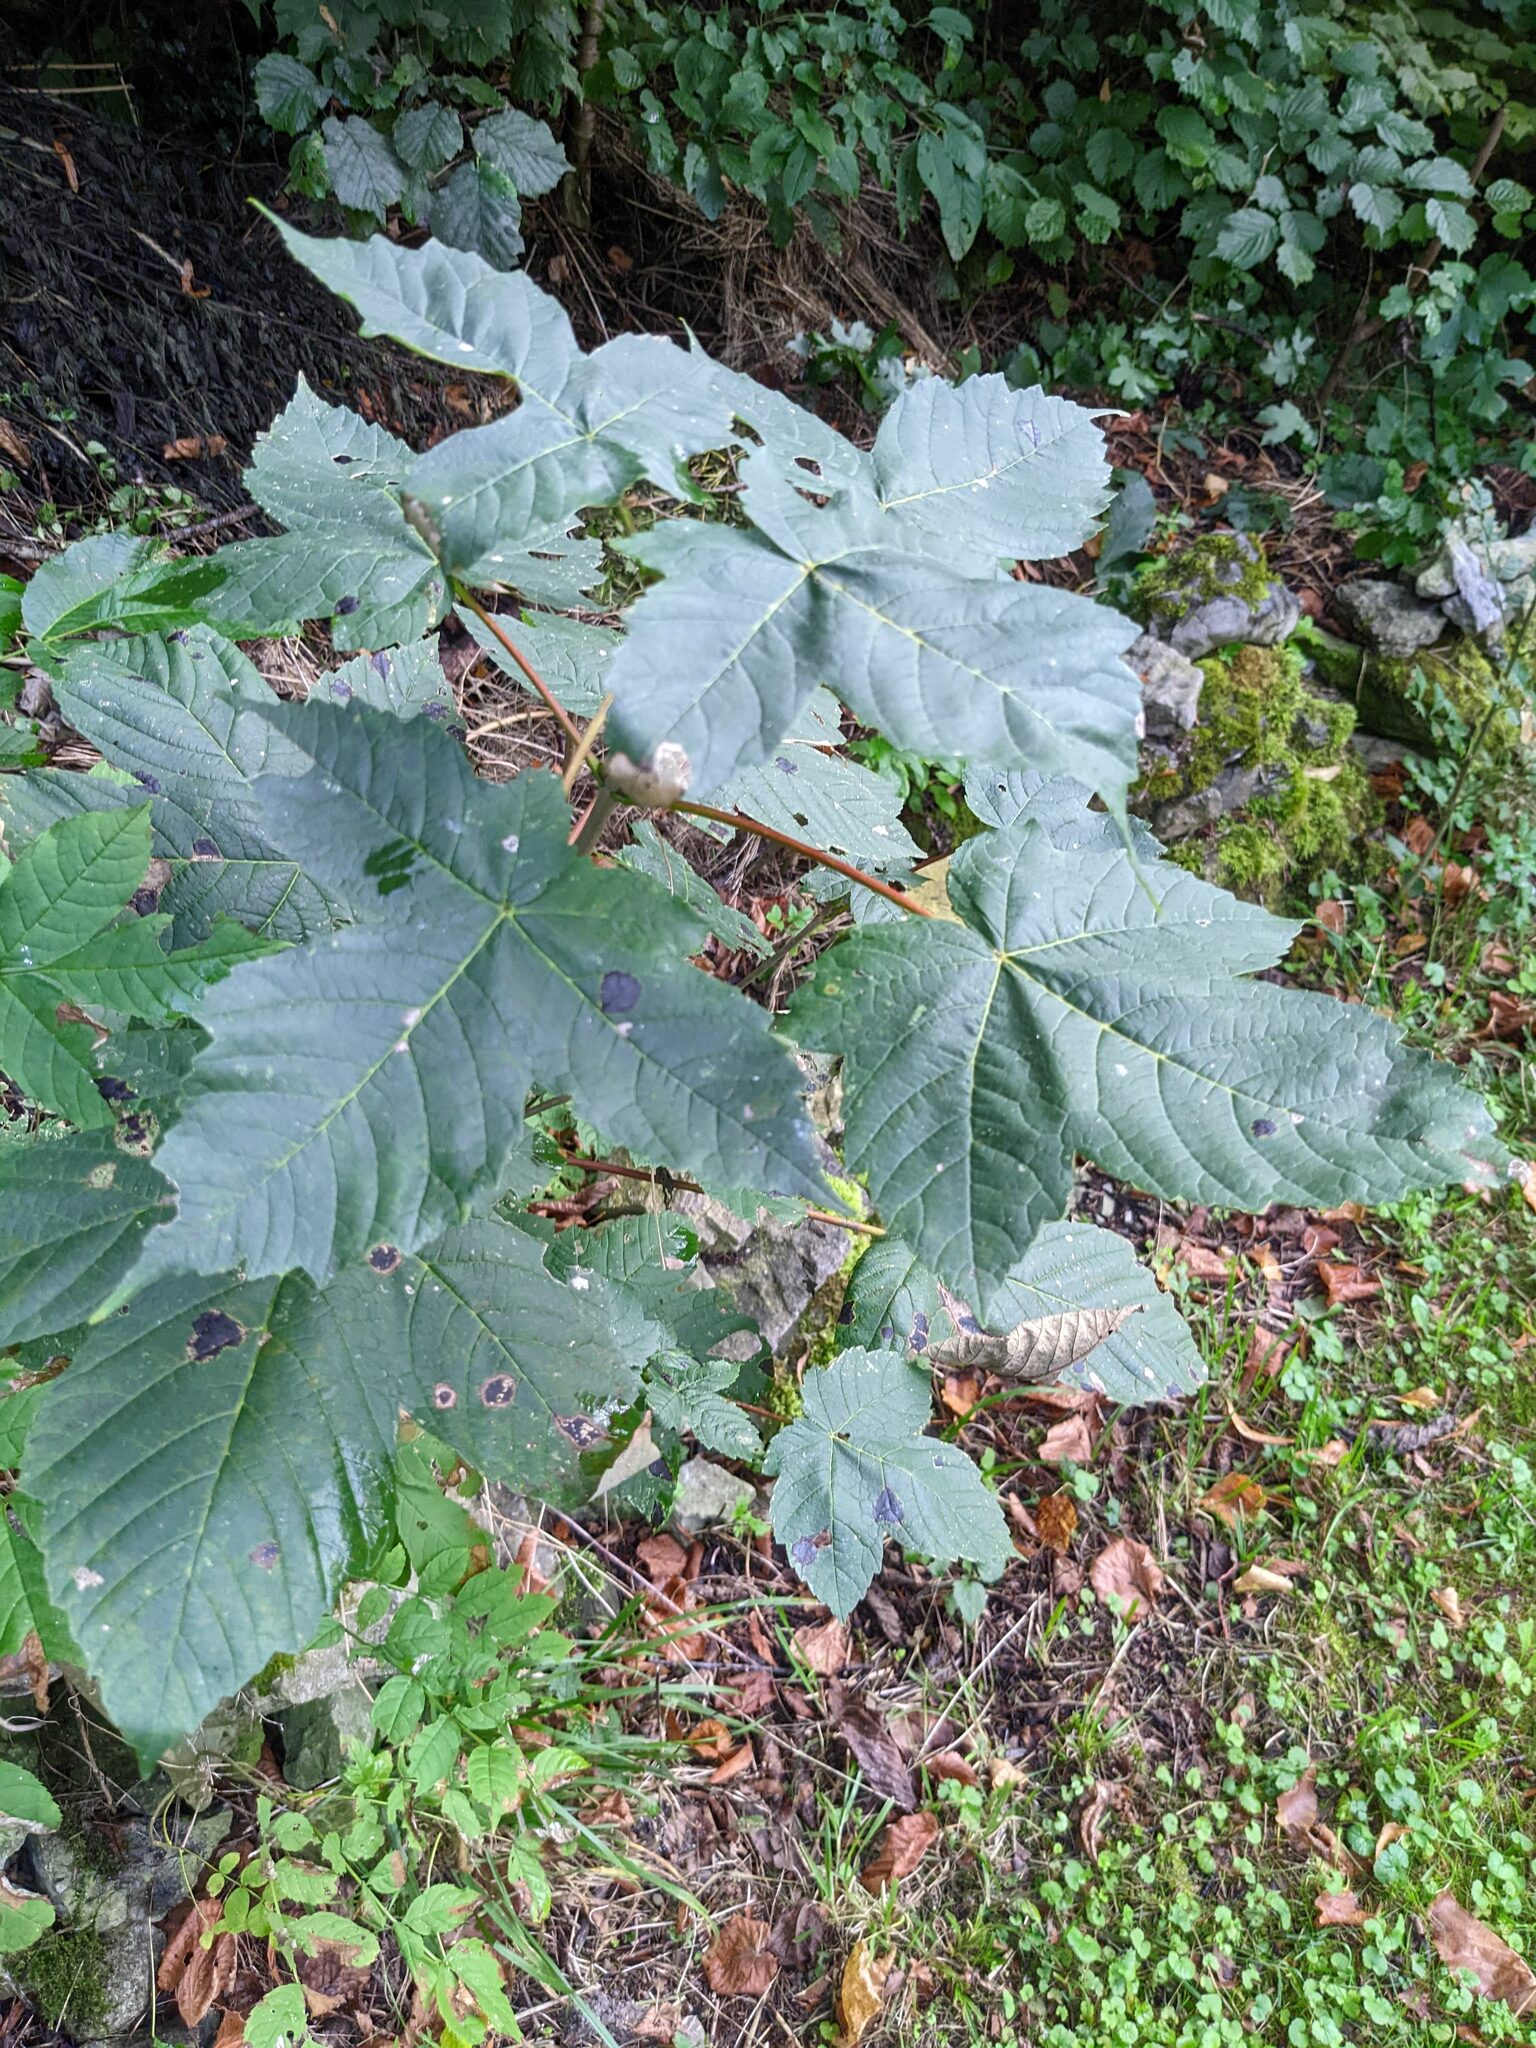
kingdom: Plantae
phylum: Tracheophyta
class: Magnoliopsida
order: Sapindales
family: Sapindaceae
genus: Acer
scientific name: Acer pseudoplatanus
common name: Sycamore
